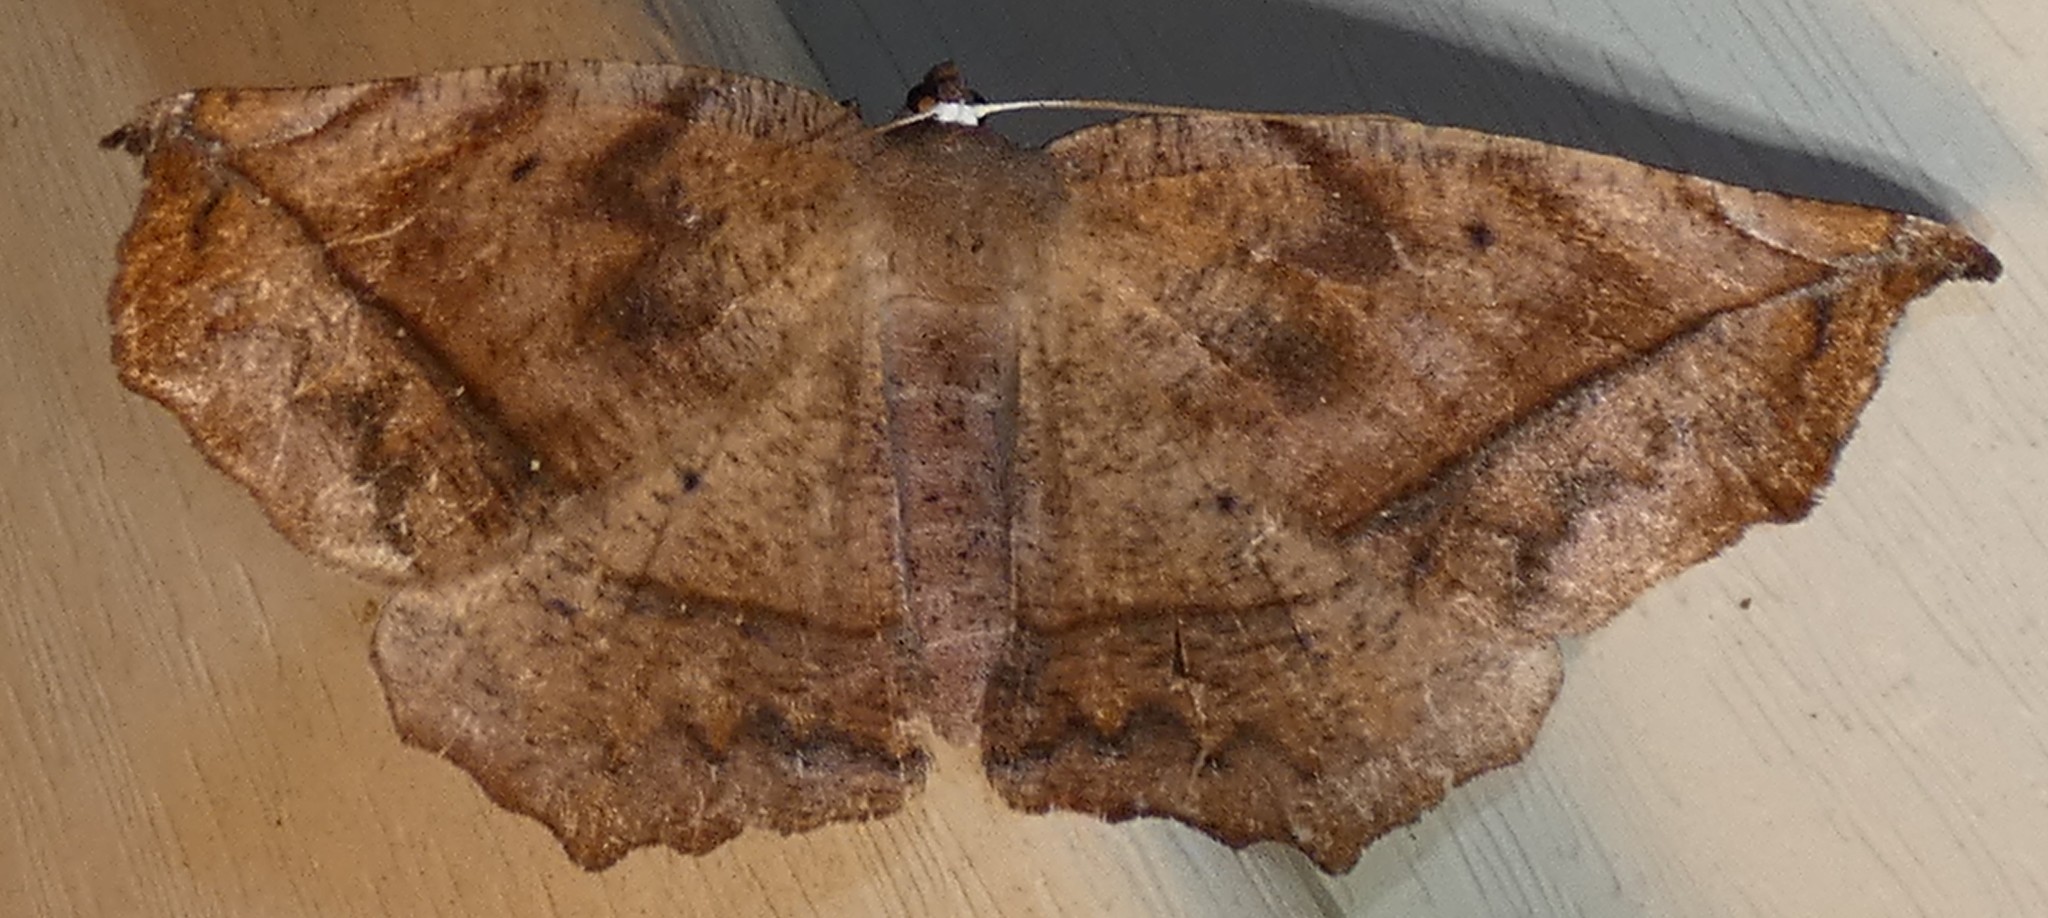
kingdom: Animalia
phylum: Arthropoda
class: Insecta
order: Lepidoptera
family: Geometridae
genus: Eutrapela
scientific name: Eutrapela clemataria
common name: Curved-toothed geometer
